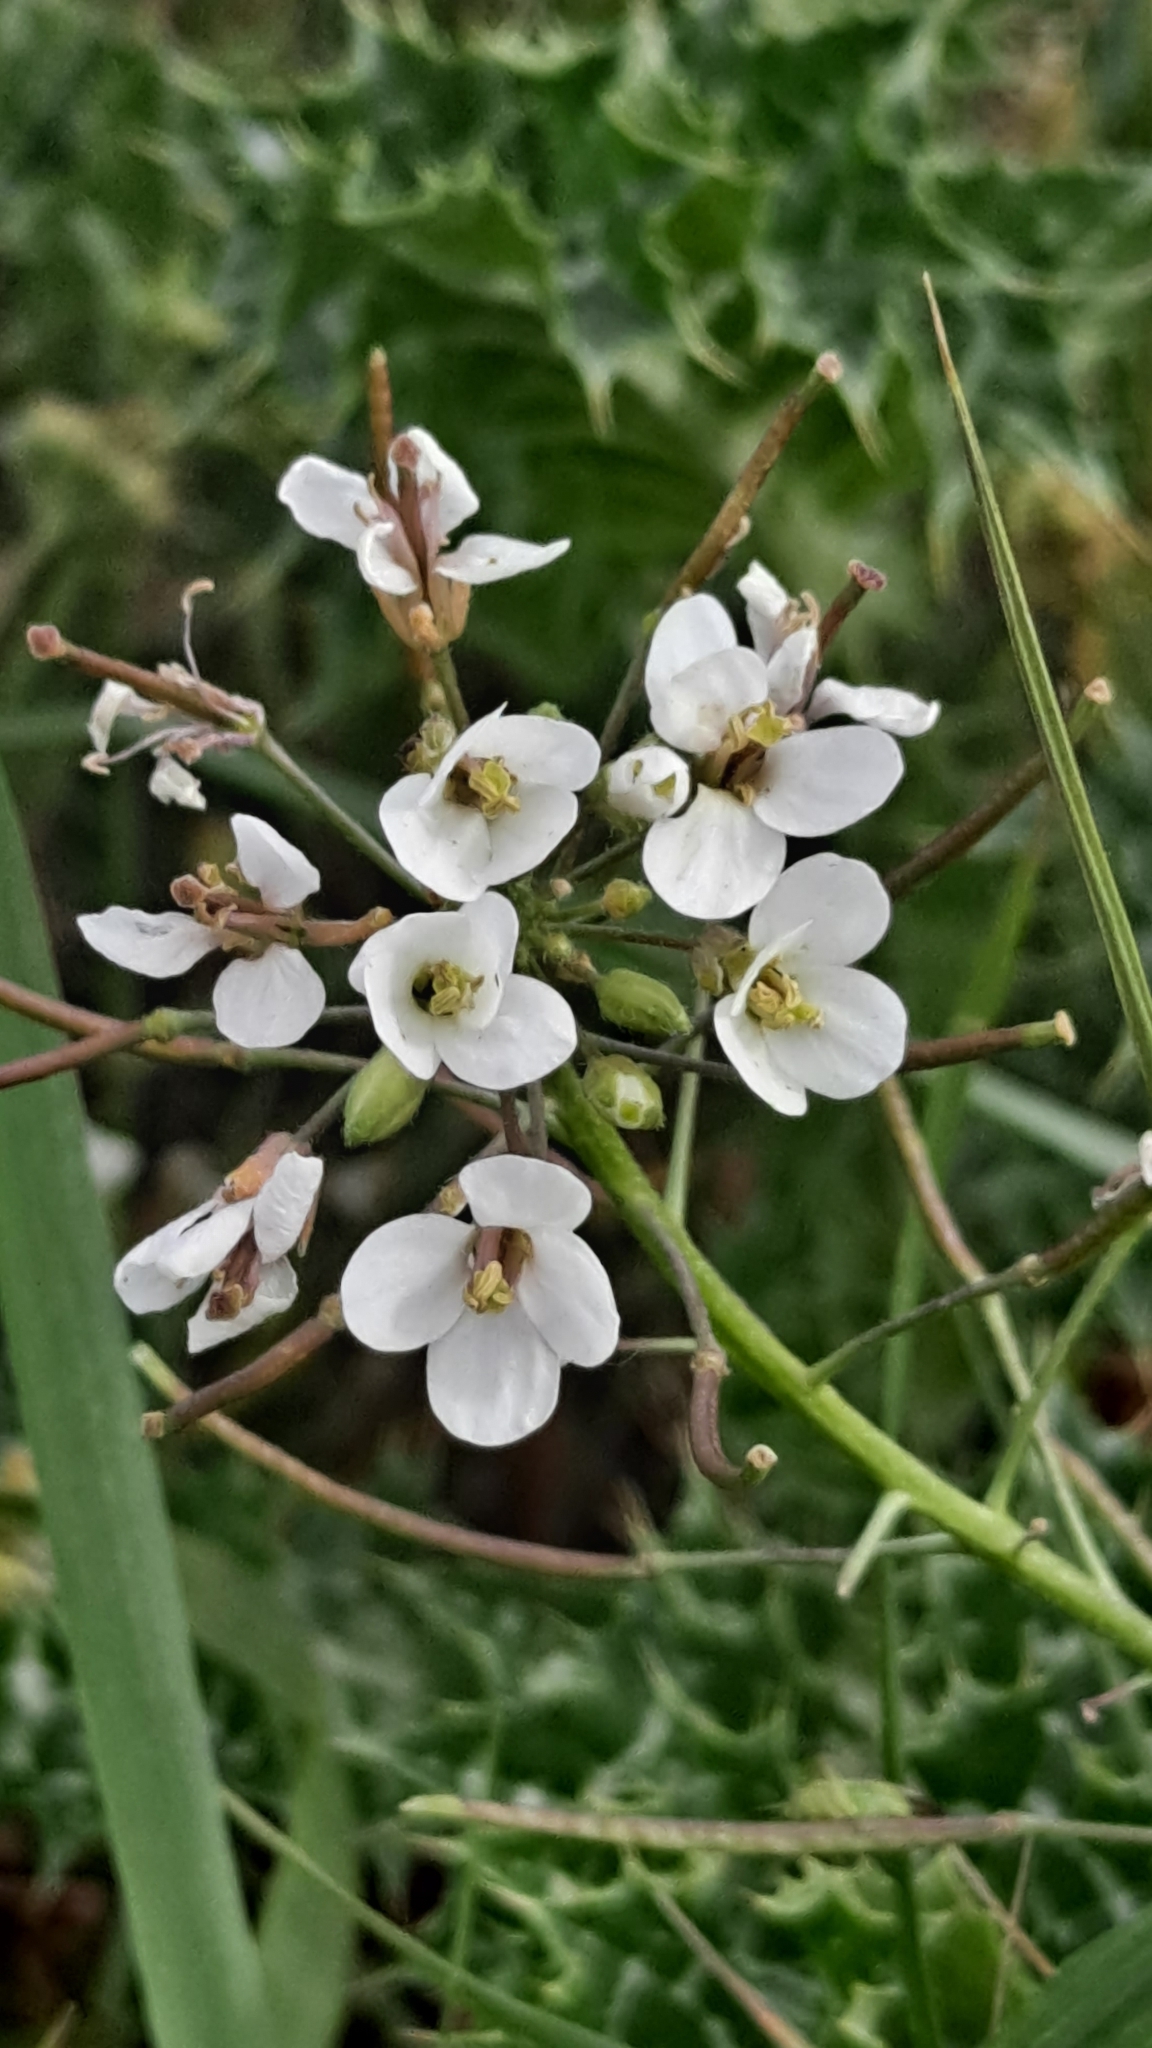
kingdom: Plantae
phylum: Tracheophyta
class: Magnoliopsida
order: Brassicales
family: Brassicaceae
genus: Diplotaxis
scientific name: Diplotaxis erucoides
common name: White rocket
